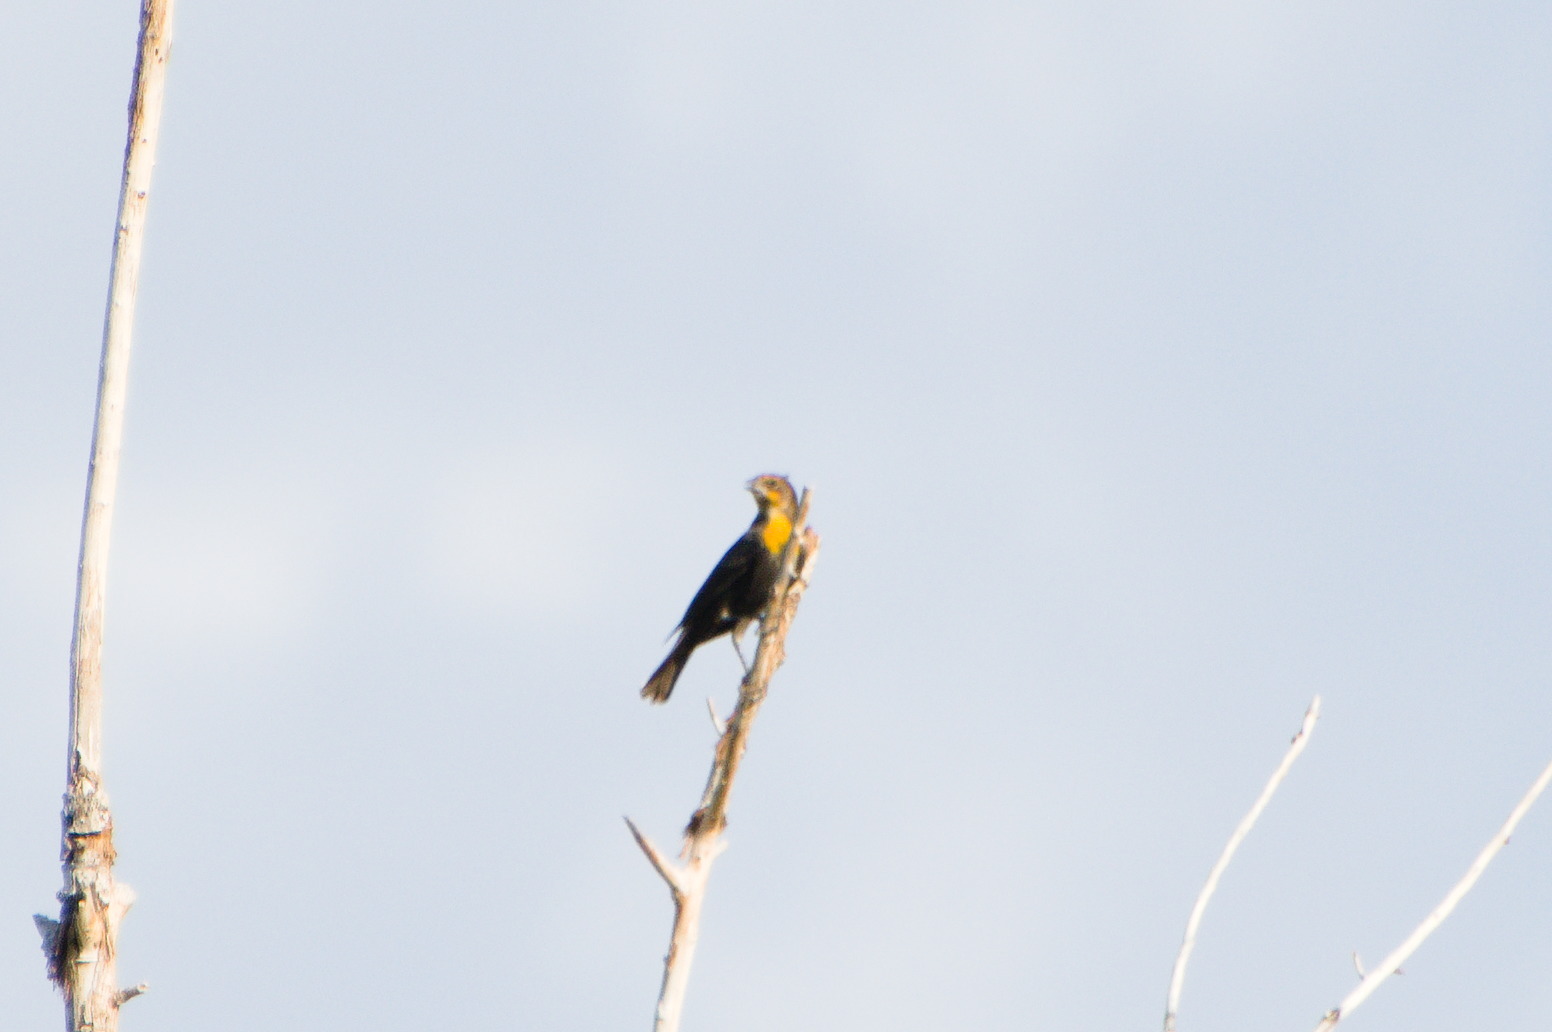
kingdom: Animalia
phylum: Chordata
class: Aves
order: Passeriformes
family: Icteridae
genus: Xanthocephalus
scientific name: Xanthocephalus xanthocephalus
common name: Yellow-headed blackbird
